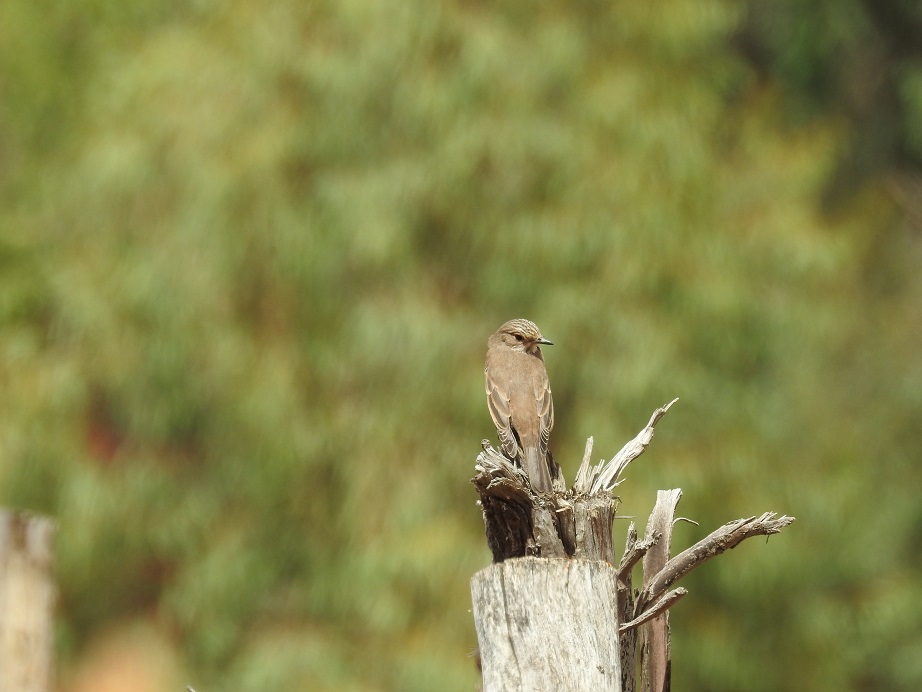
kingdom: Animalia
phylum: Chordata
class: Aves
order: Passeriformes
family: Muscicapidae
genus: Muscicapa
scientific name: Muscicapa striata
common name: Spotted flycatcher
